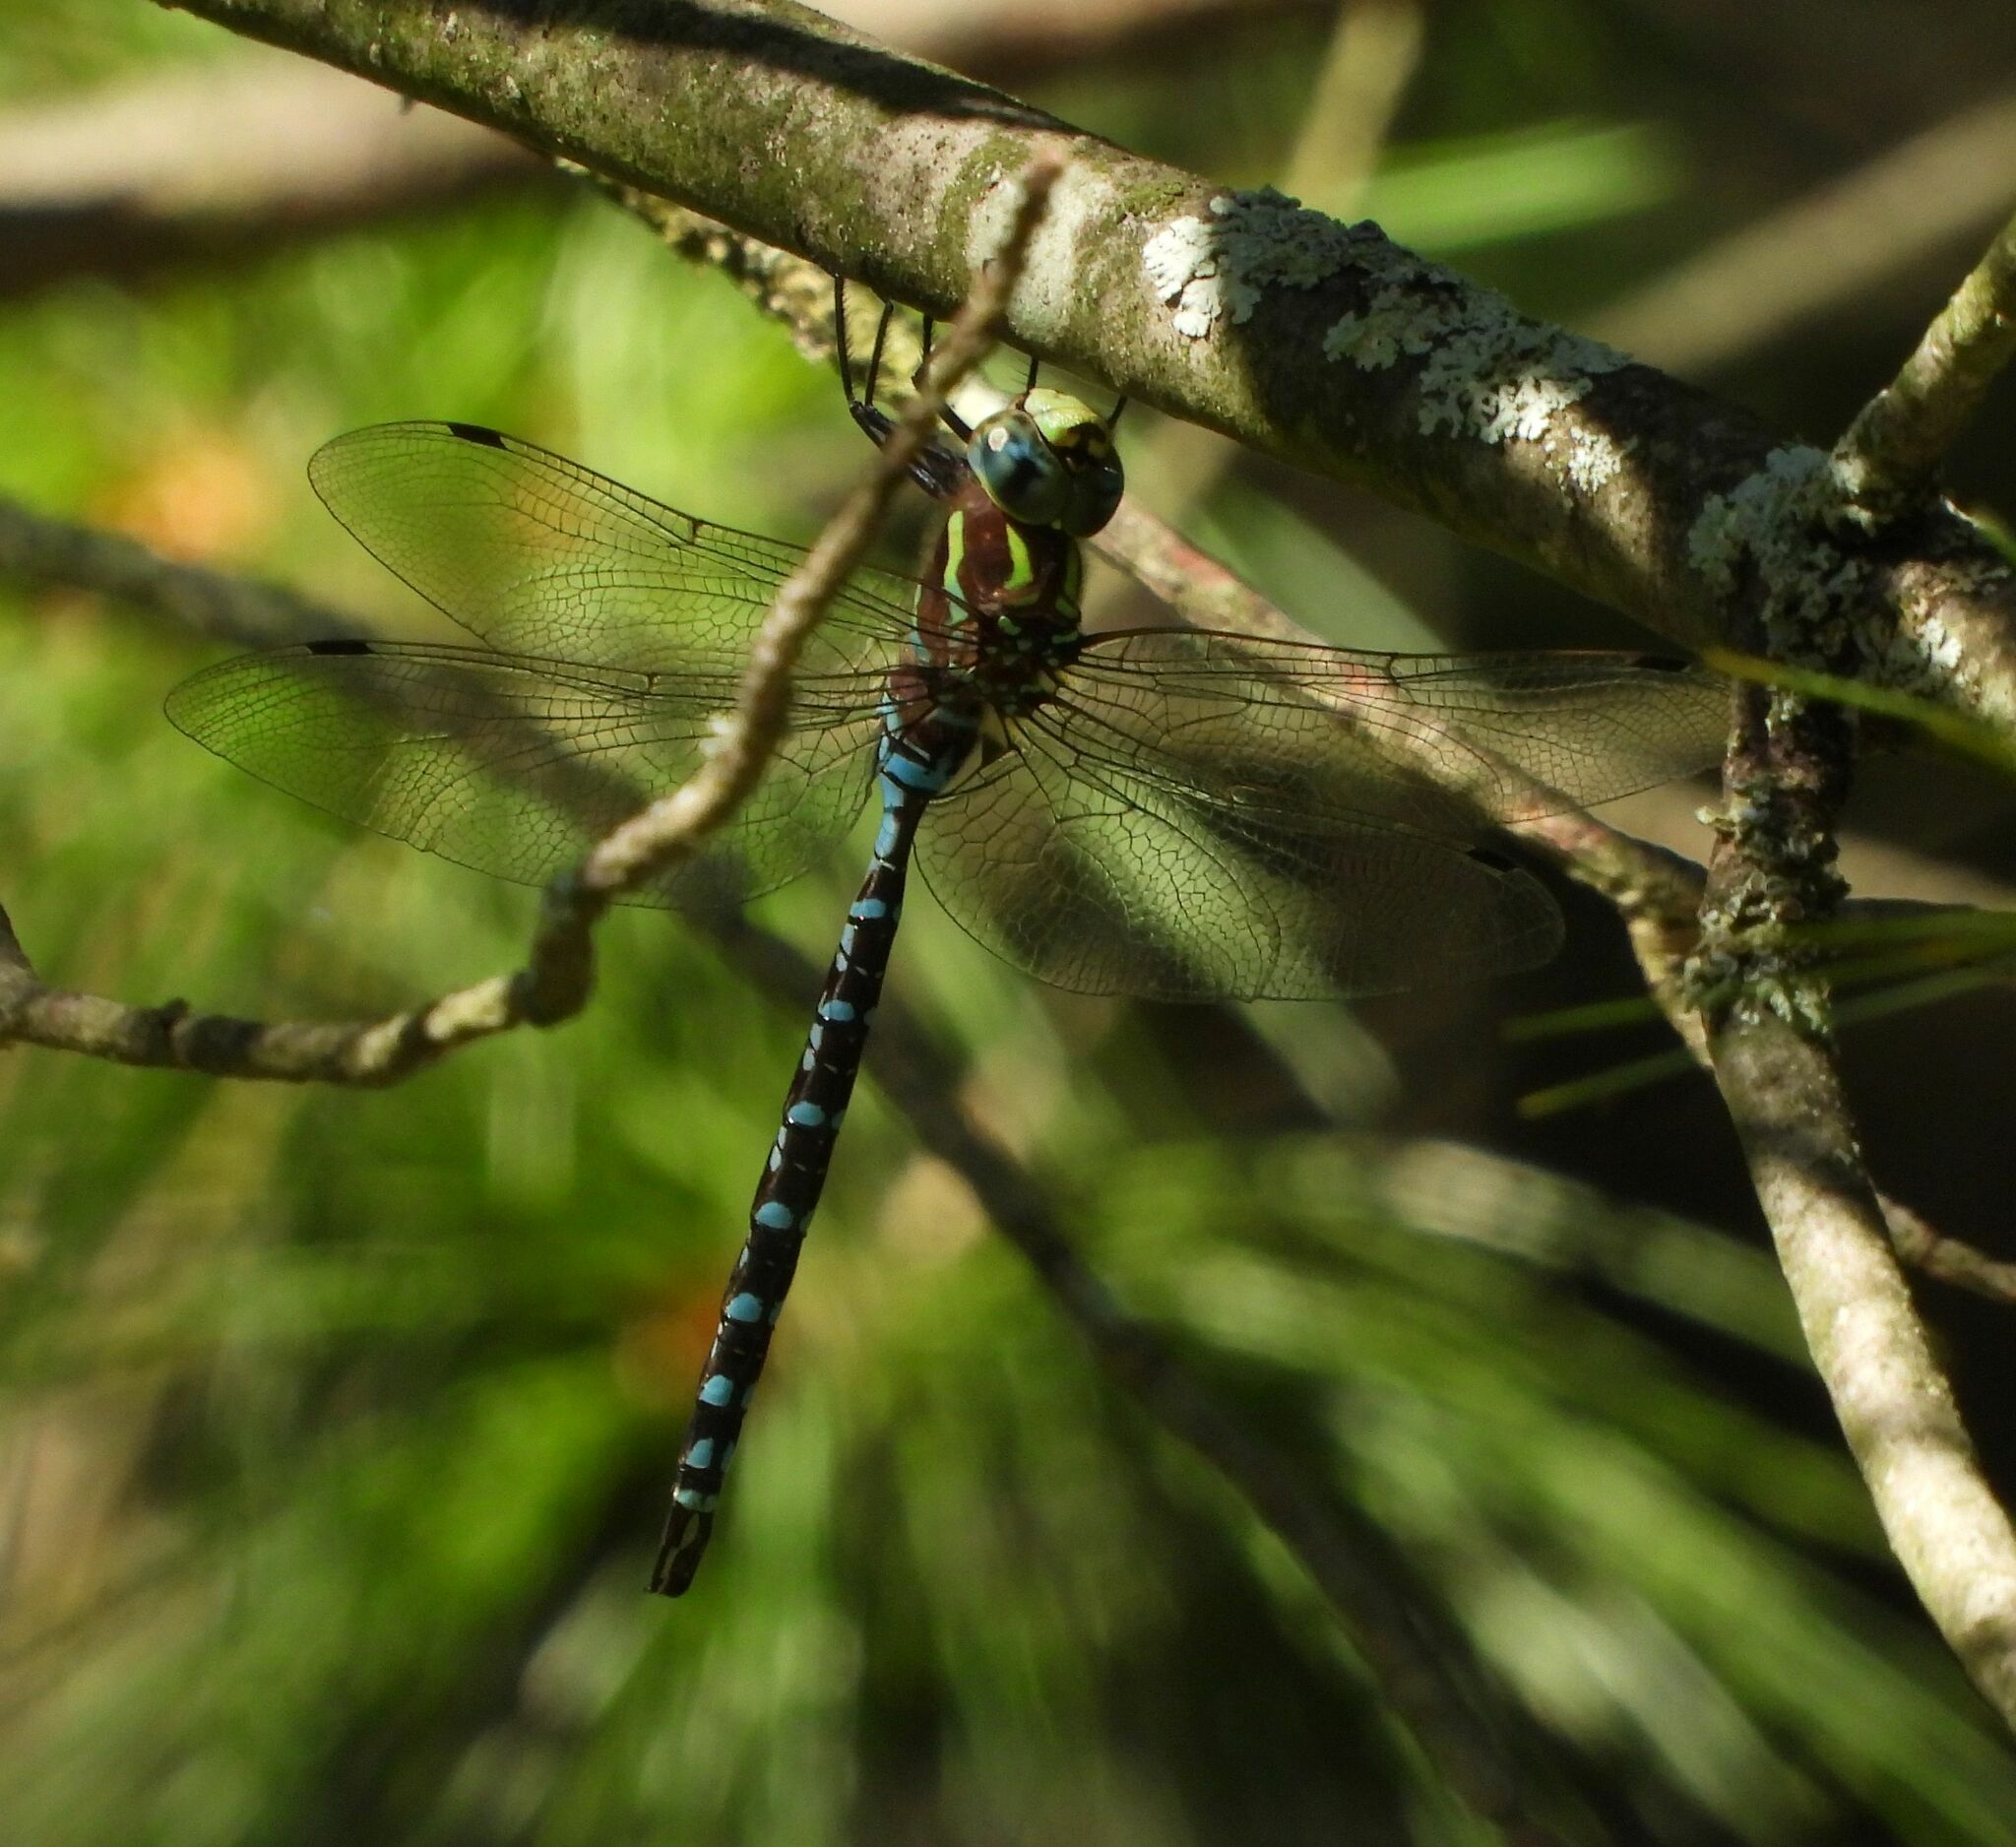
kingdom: Animalia
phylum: Arthropoda
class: Insecta
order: Odonata
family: Aeshnidae
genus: Aeshna
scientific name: Aeshna constricta
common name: Lance-tipped darner
